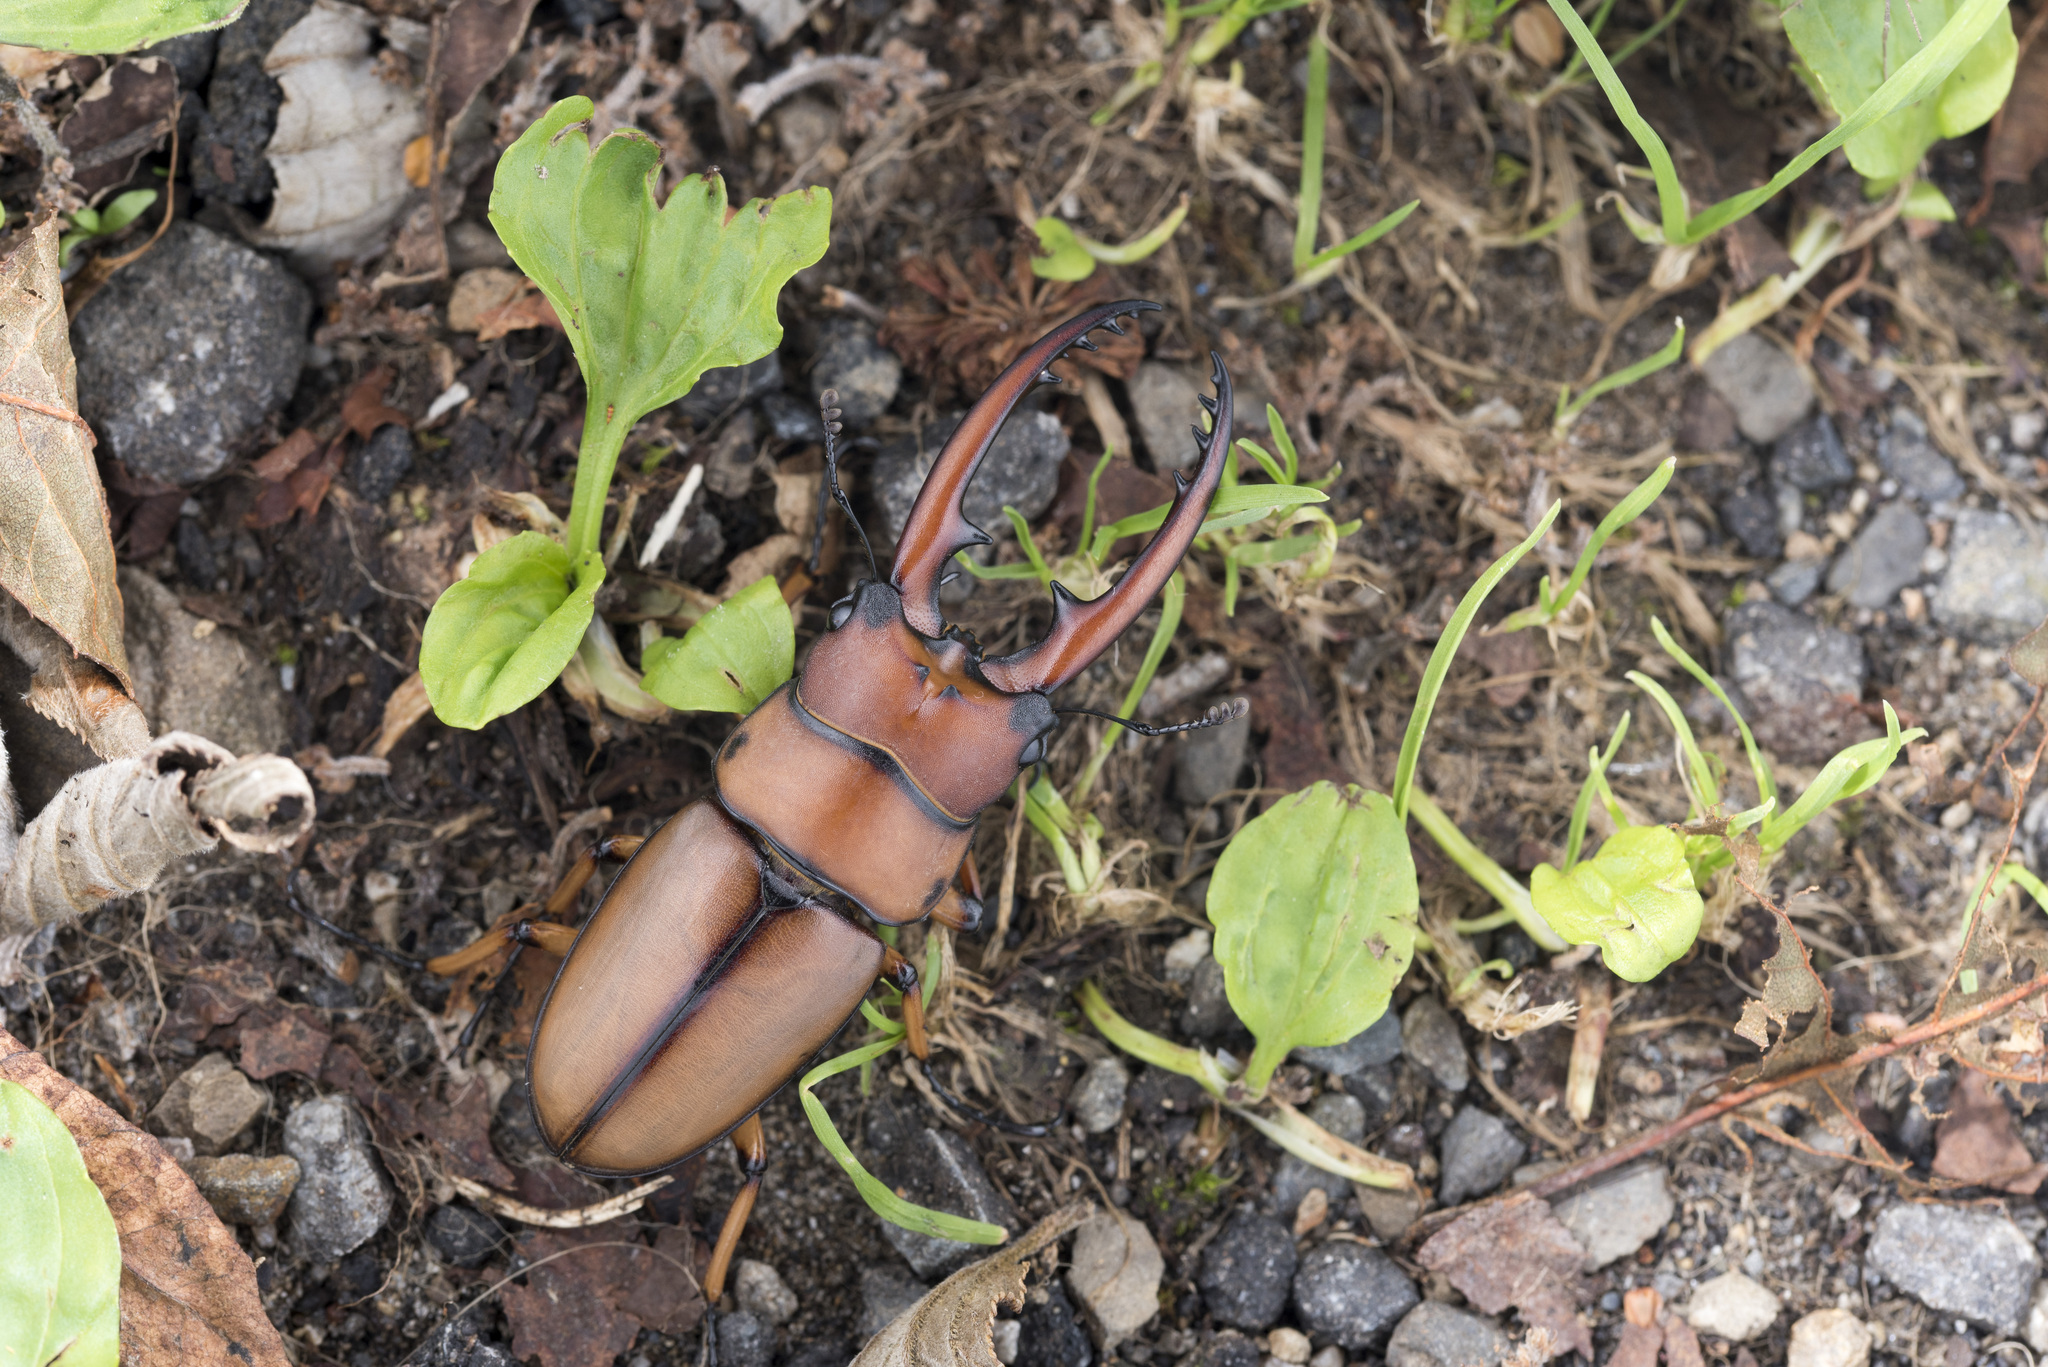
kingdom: Animalia
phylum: Arthropoda
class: Insecta
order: Coleoptera
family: Lucanidae
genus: Prosopocoilus
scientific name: Prosopocoilus astacoides
